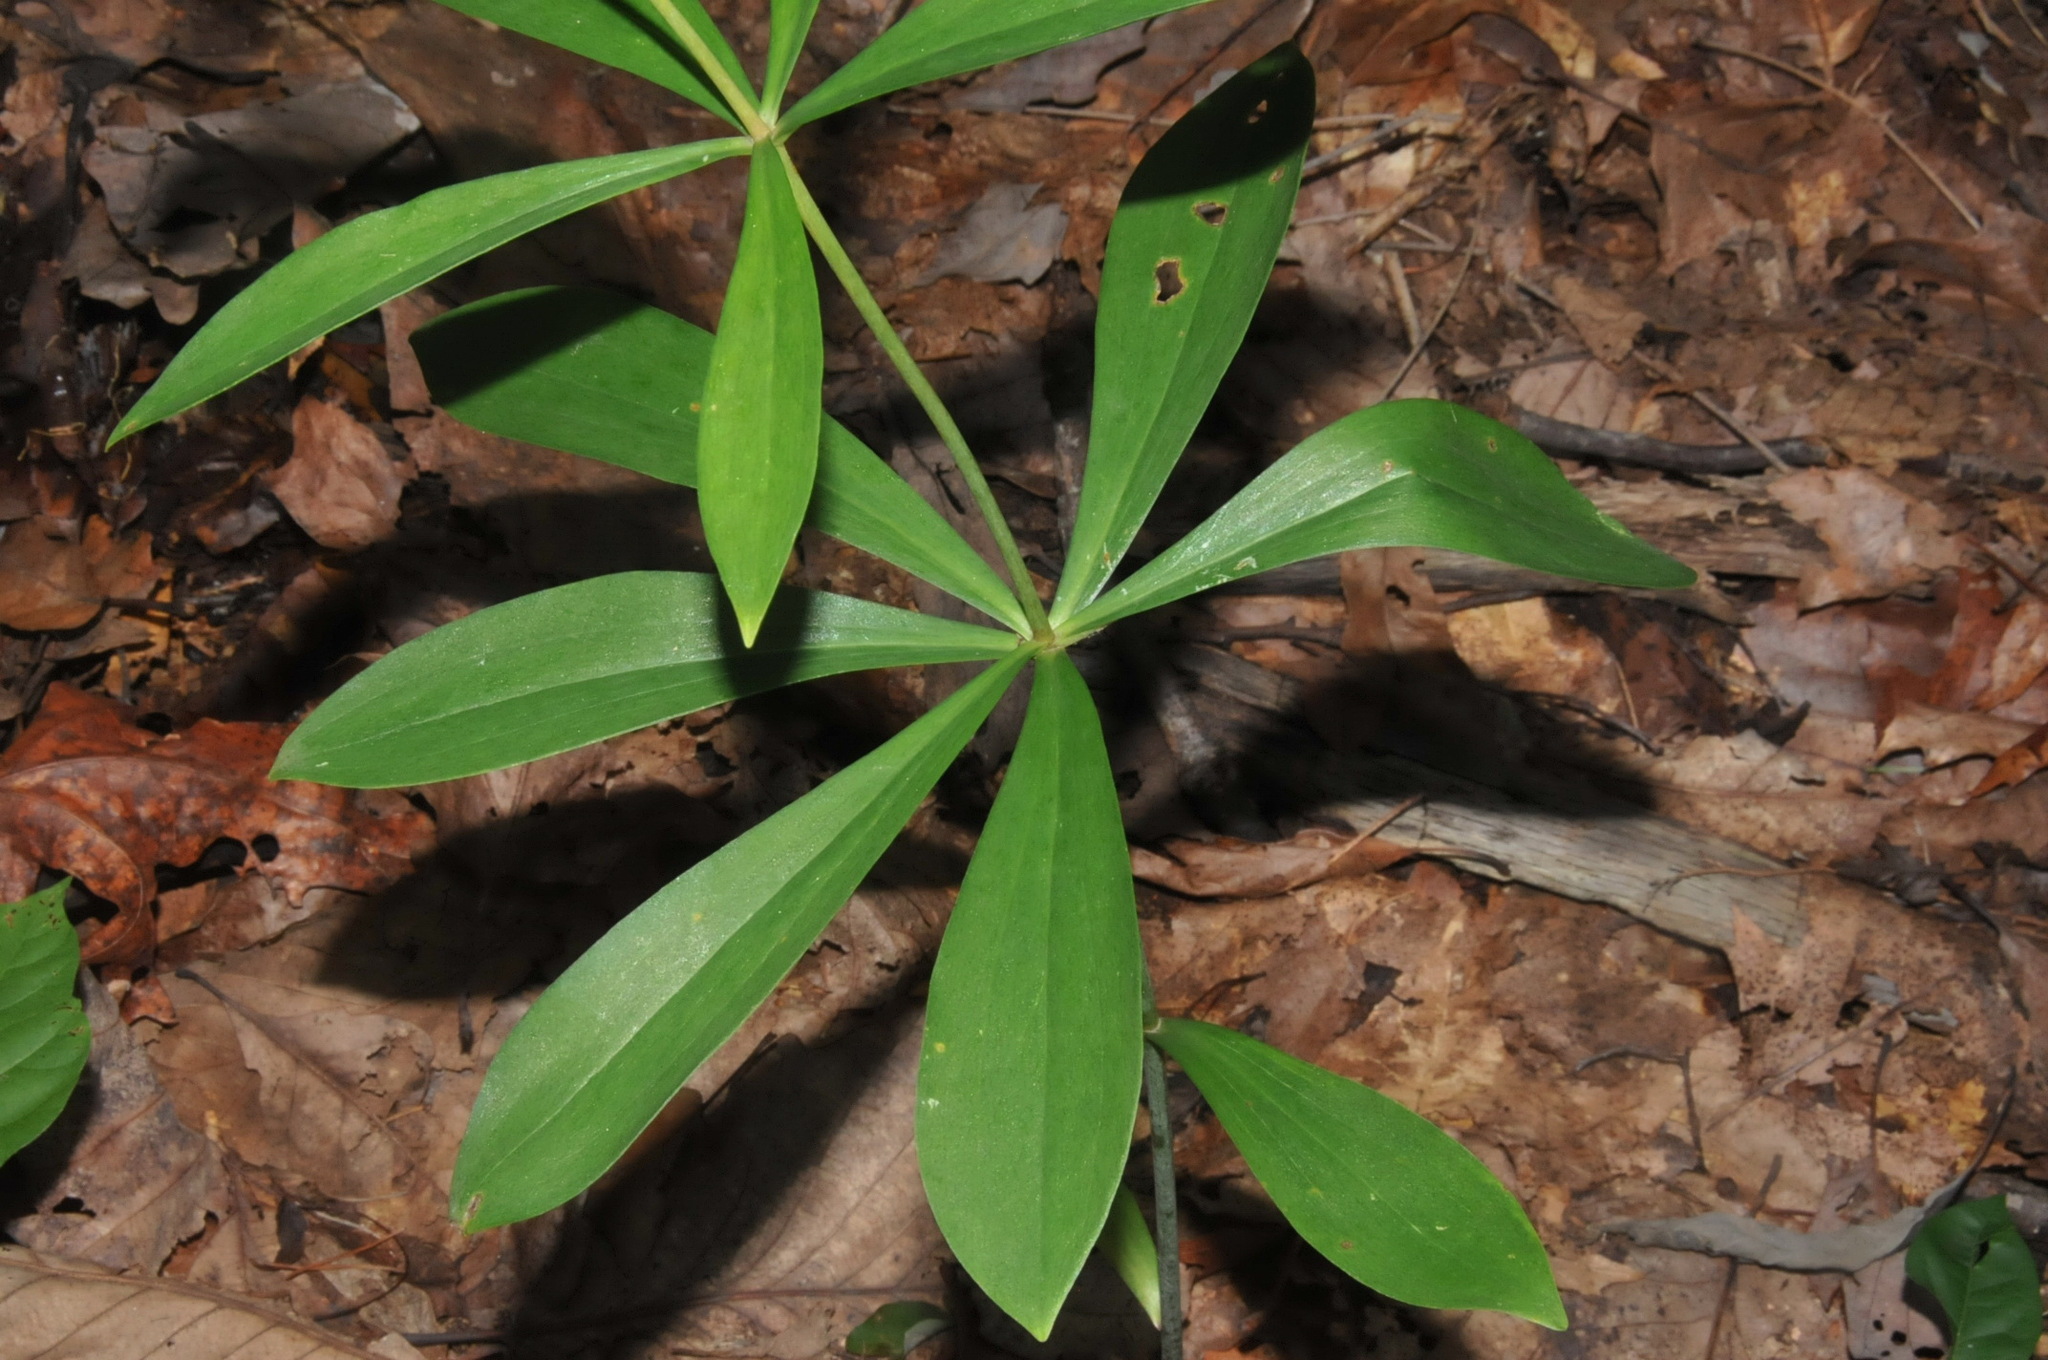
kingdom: Plantae
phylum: Tracheophyta
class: Liliopsida
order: Liliales
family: Liliaceae
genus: Lilium
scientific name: Lilium michauxii
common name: Carolina lily
